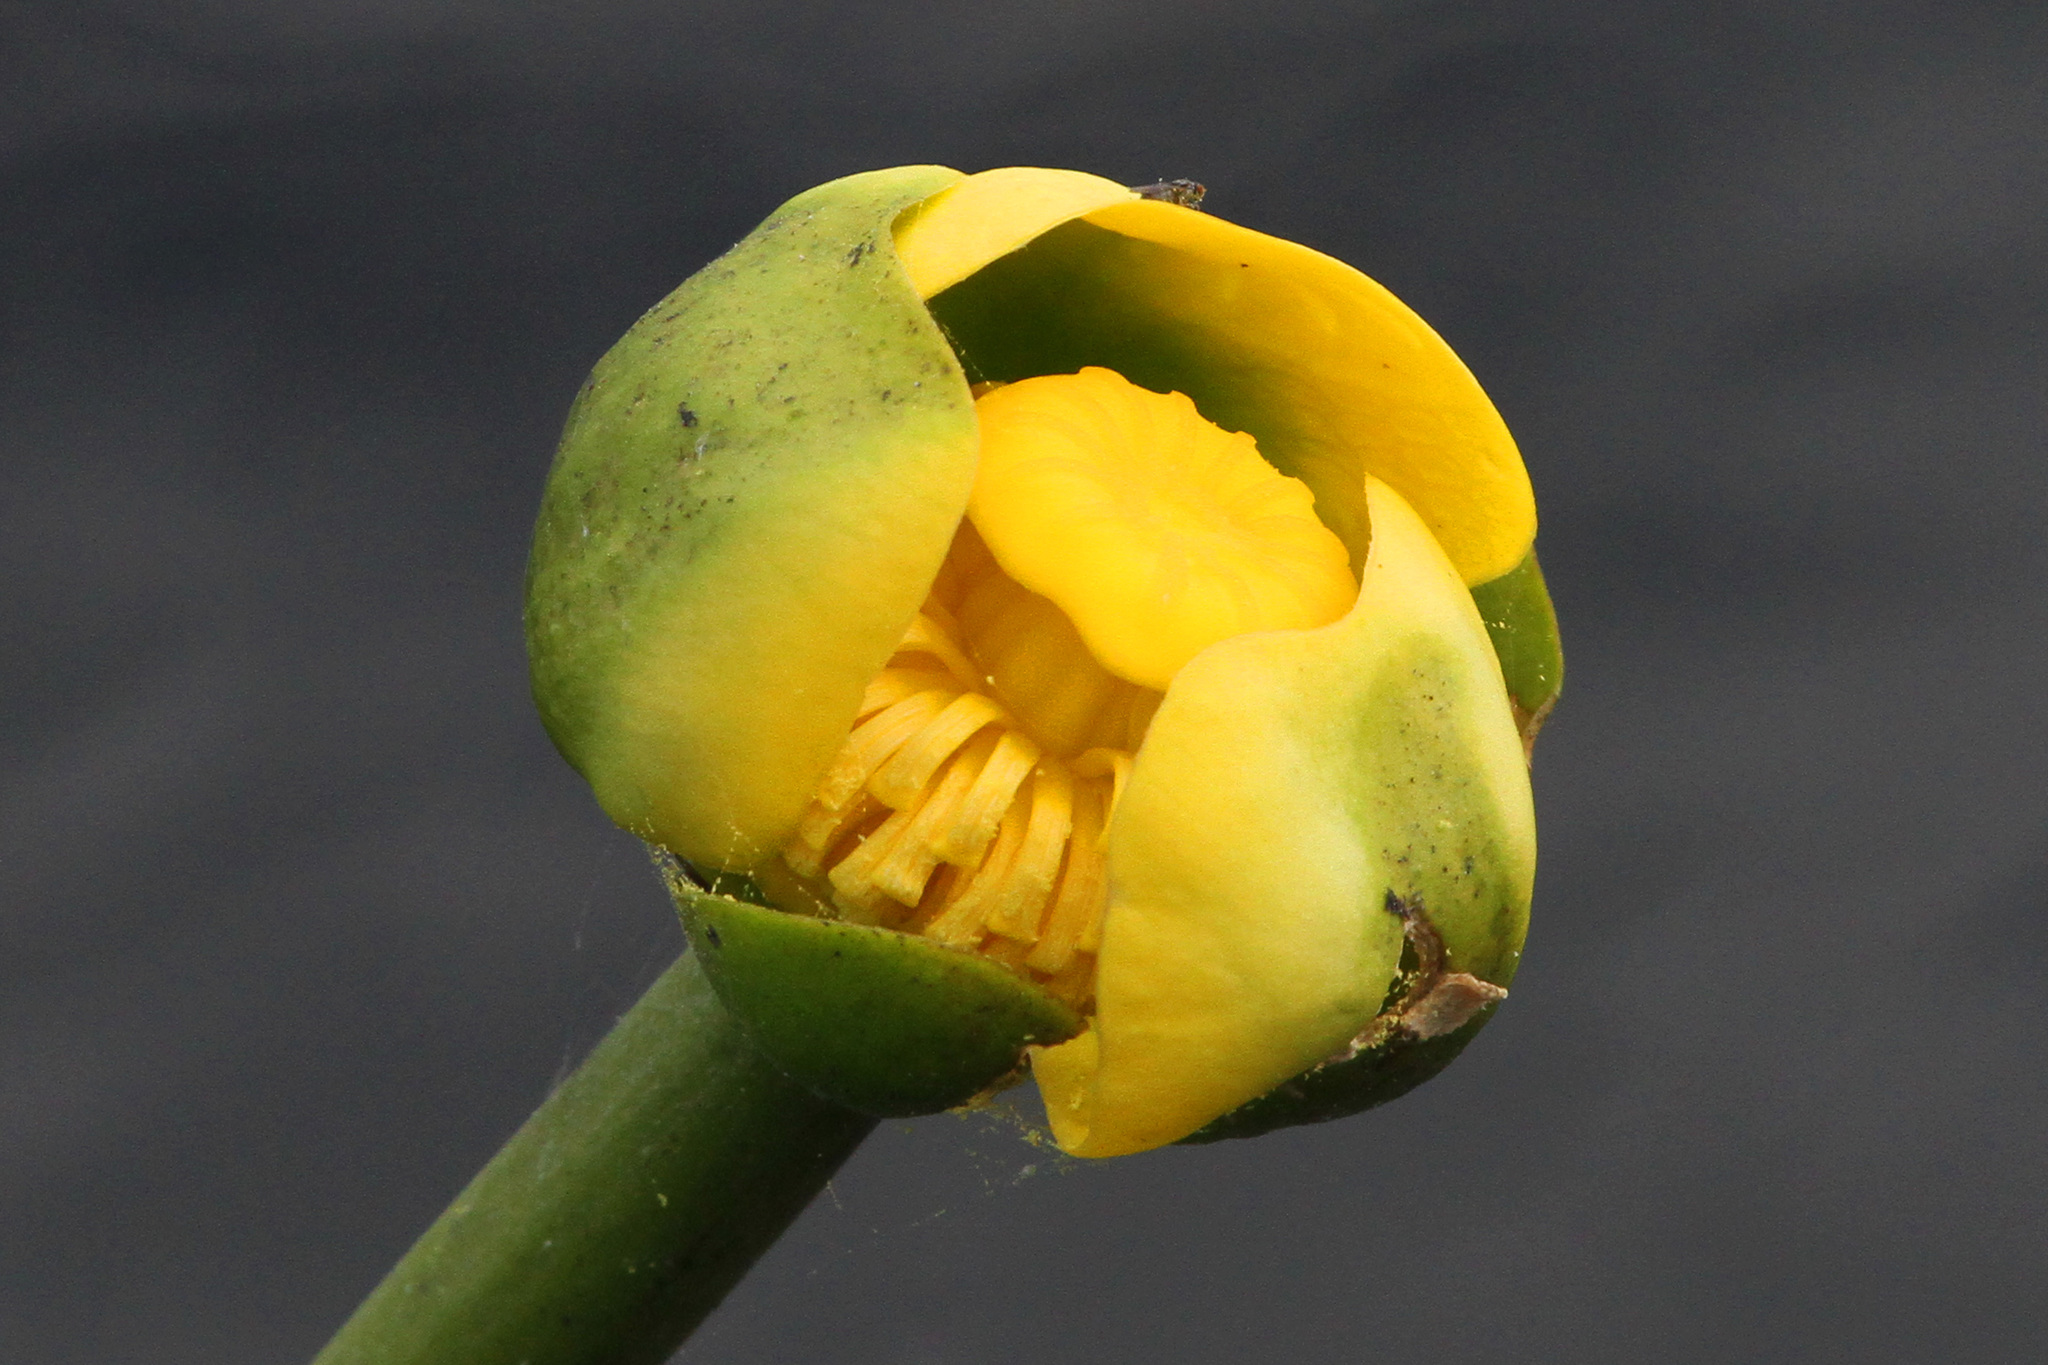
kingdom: Plantae
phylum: Tracheophyta
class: Magnoliopsida
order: Nymphaeales
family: Nymphaeaceae
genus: Nuphar
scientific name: Nuphar advena
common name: Spatter-dock
